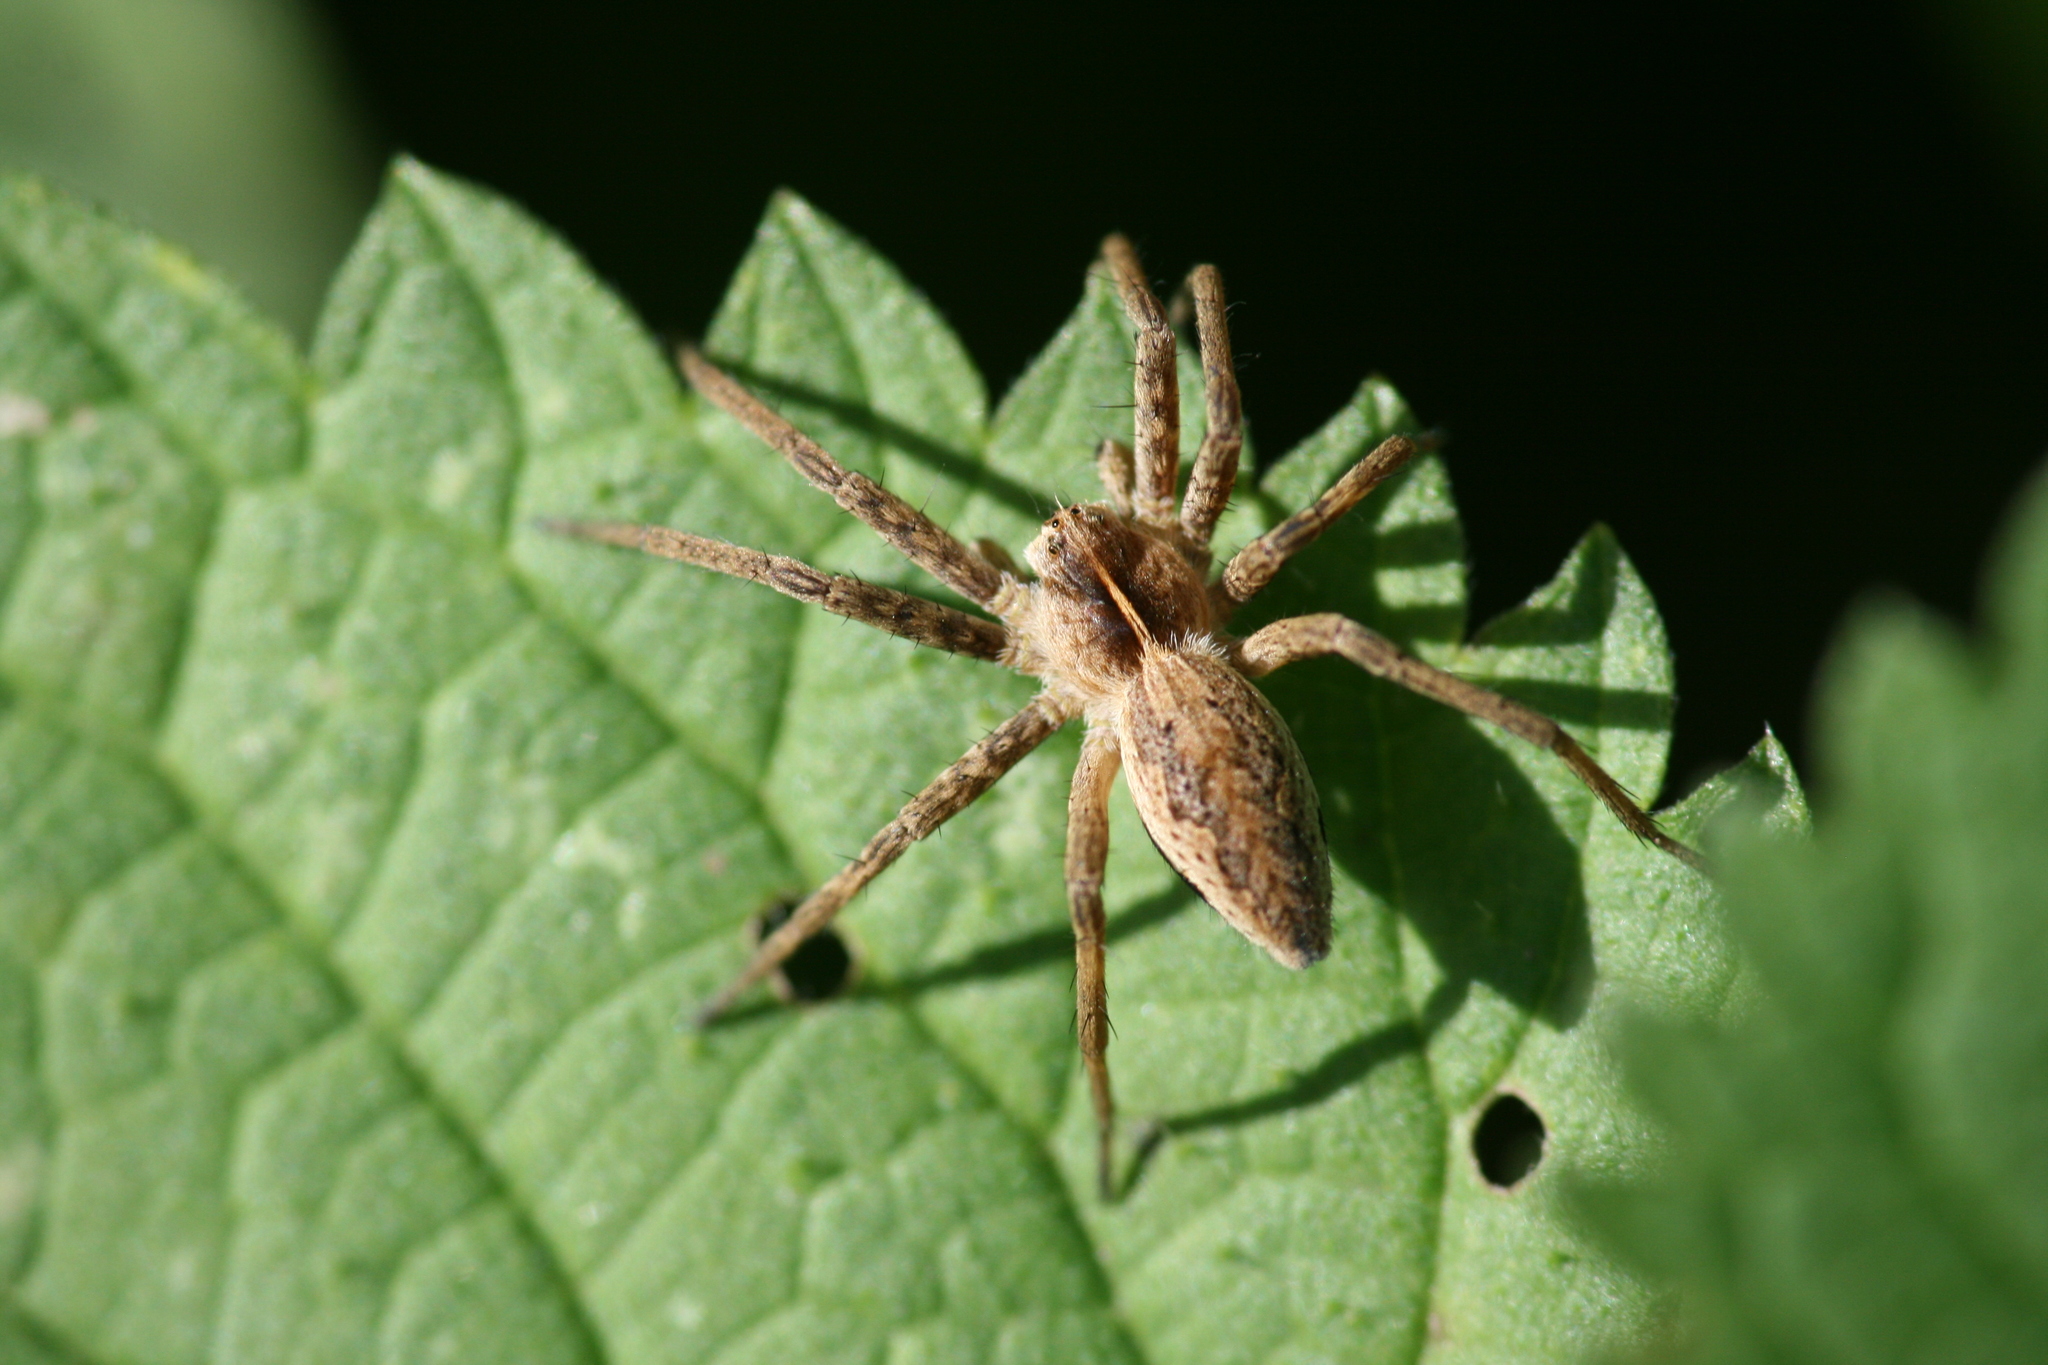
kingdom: Animalia
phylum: Arthropoda
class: Arachnida
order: Araneae
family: Pisauridae
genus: Pisaura
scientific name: Pisaura mirabilis
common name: Tent spider
